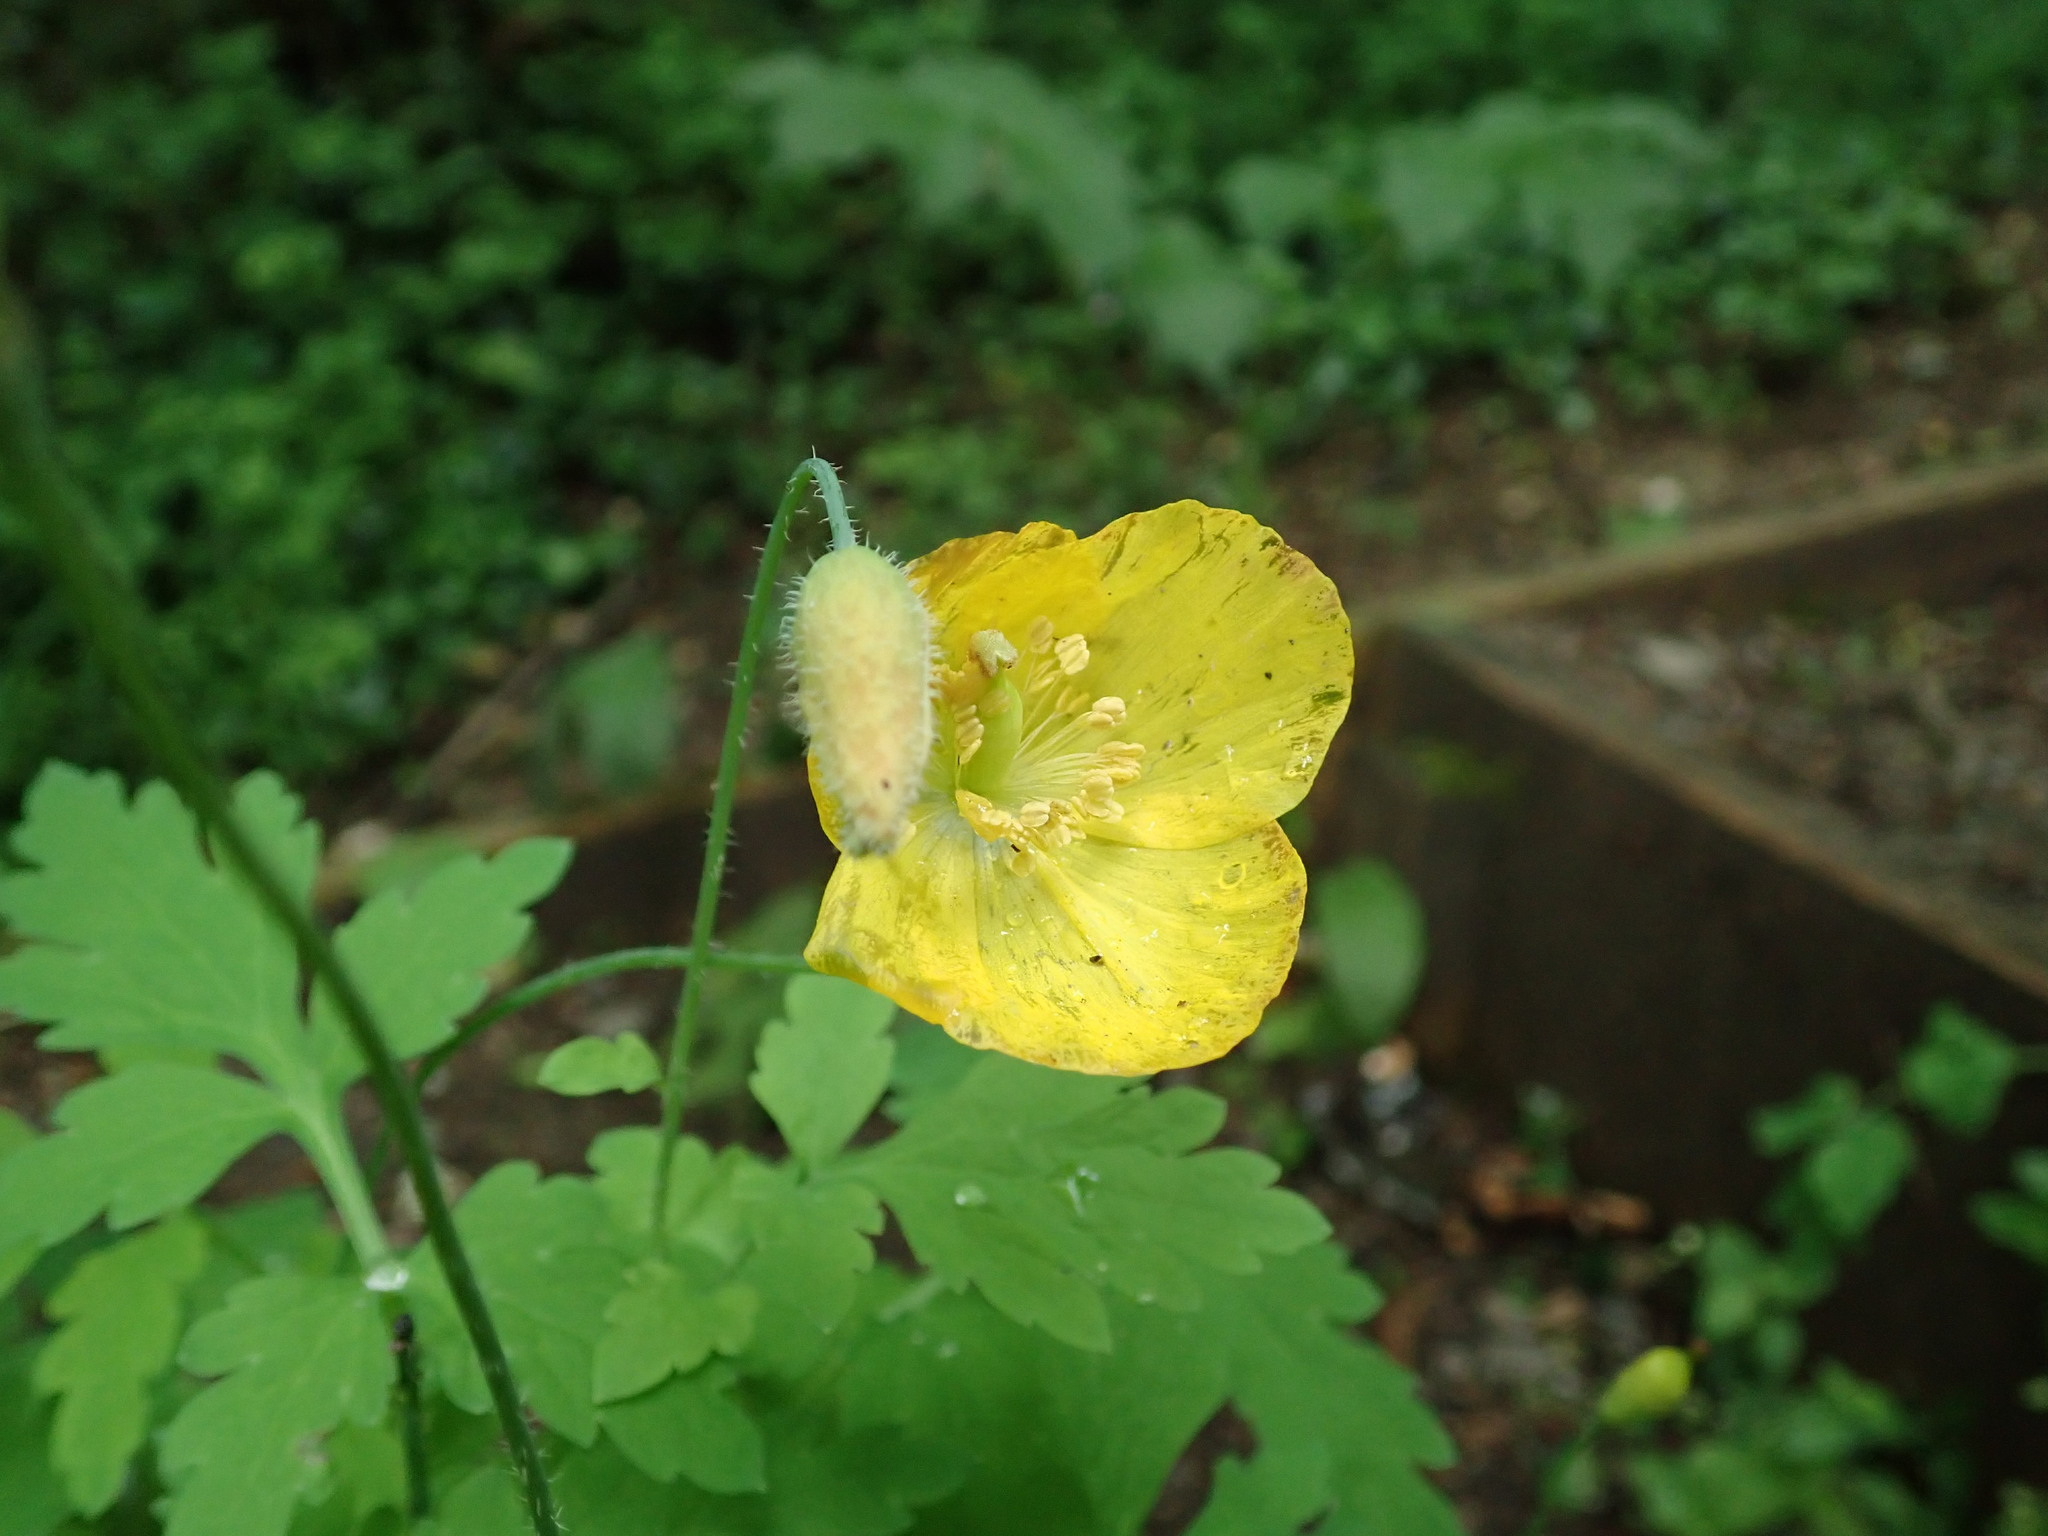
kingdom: Plantae
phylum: Tracheophyta
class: Magnoliopsida
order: Ranunculales
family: Papaveraceae
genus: Papaver
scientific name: Papaver cambricum
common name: Poppy
